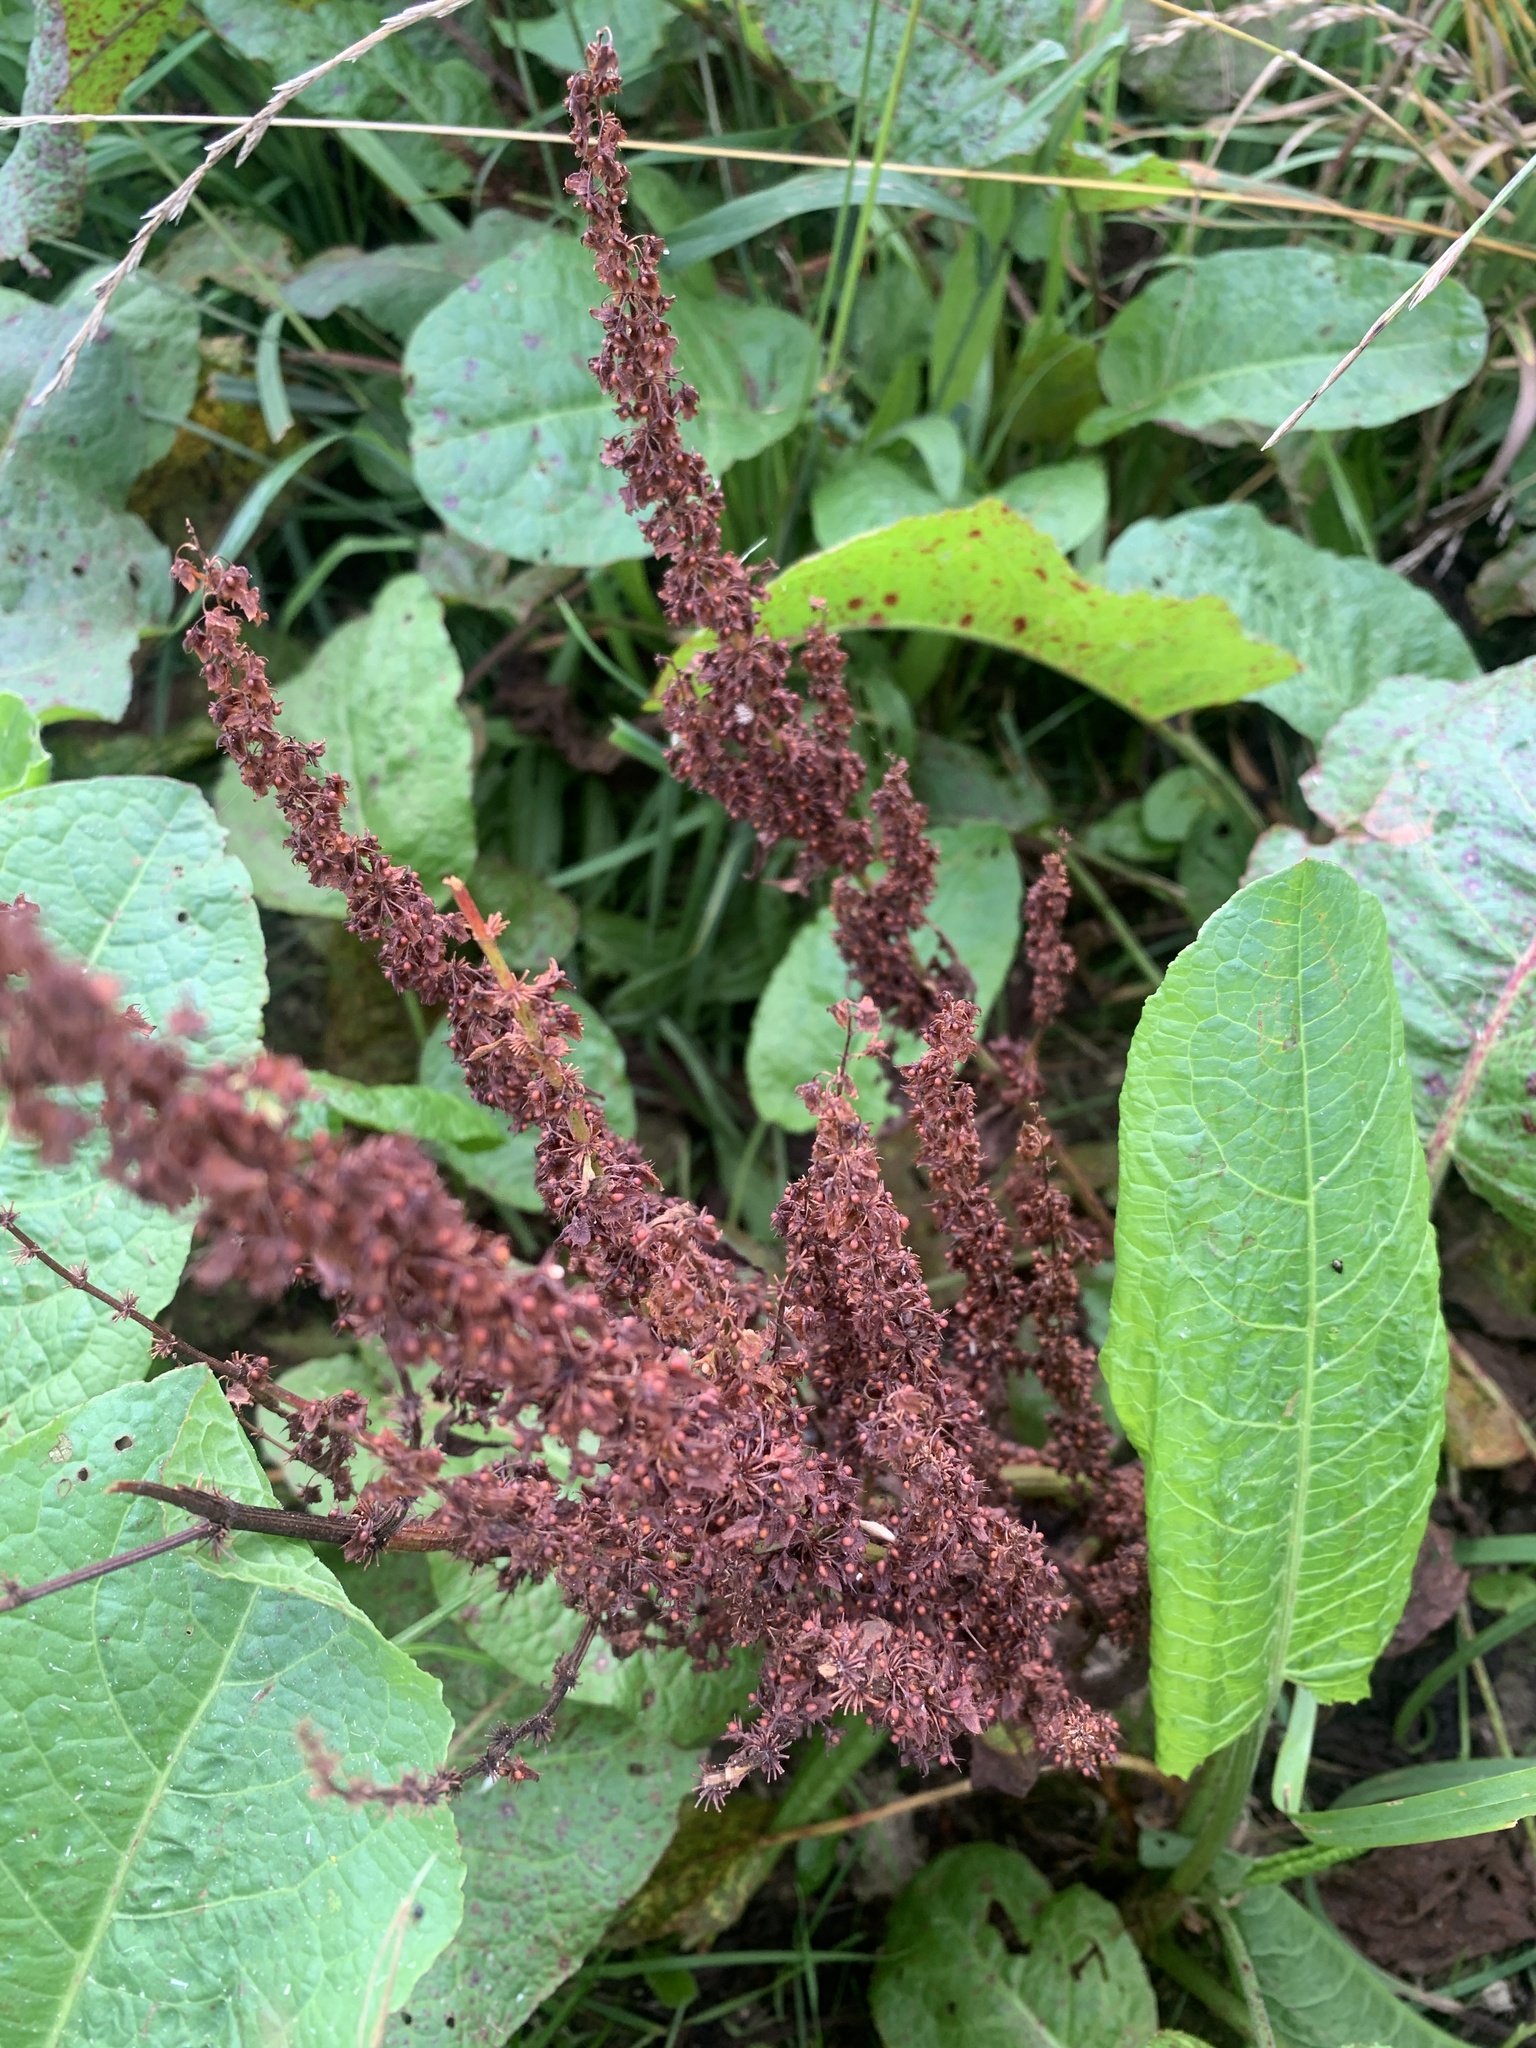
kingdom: Plantae
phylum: Tracheophyta
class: Magnoliopsida
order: Caryophyllales
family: Polygonaceae
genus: Rumex
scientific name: Rumex crispus
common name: Curled dock
